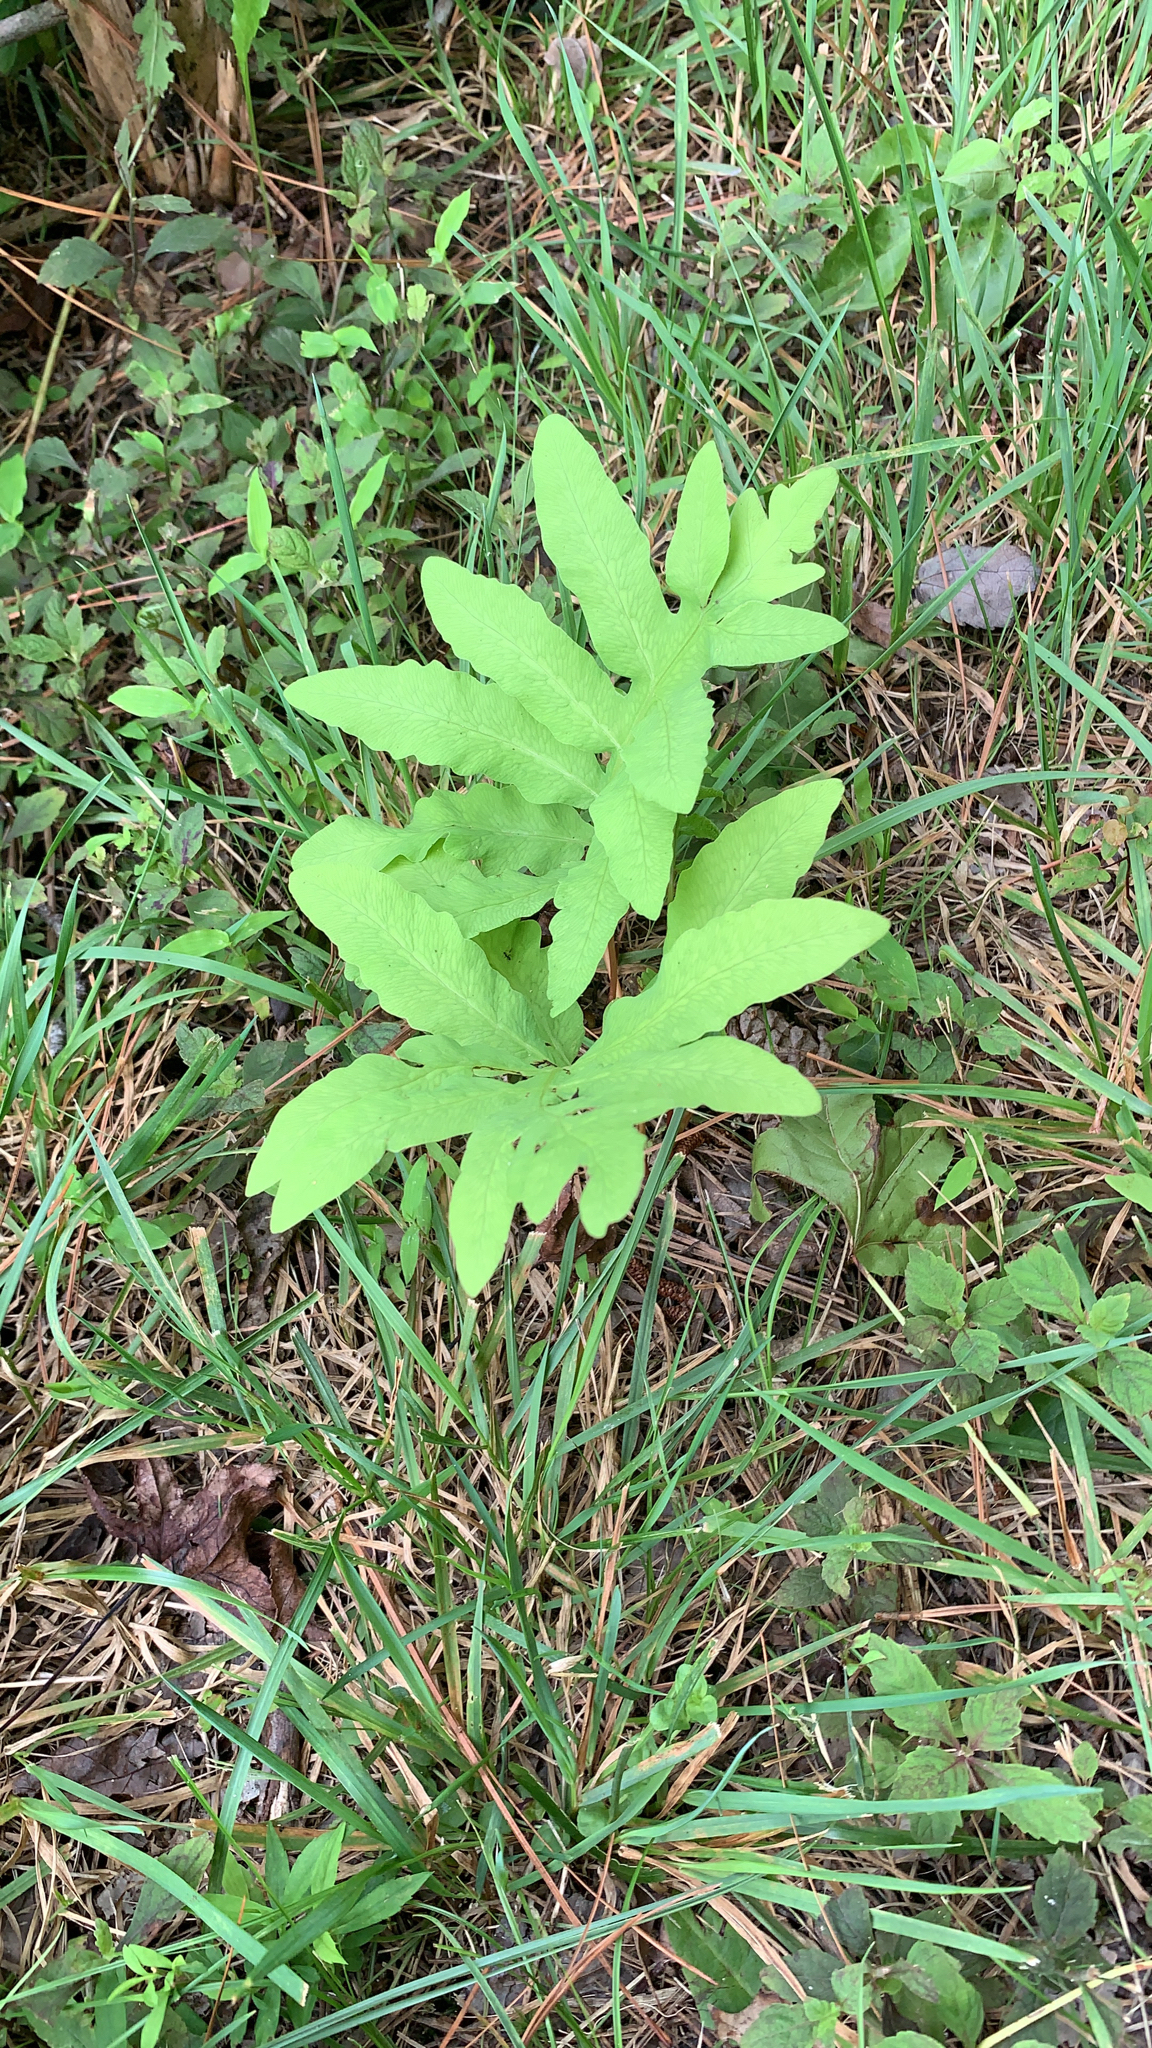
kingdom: Plantae
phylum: Tracheophyta
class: Polypodiopsida
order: Polypodiales
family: Onocleaceae
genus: Onoclea
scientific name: Onoclea sensibilis
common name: Sensitive fern
